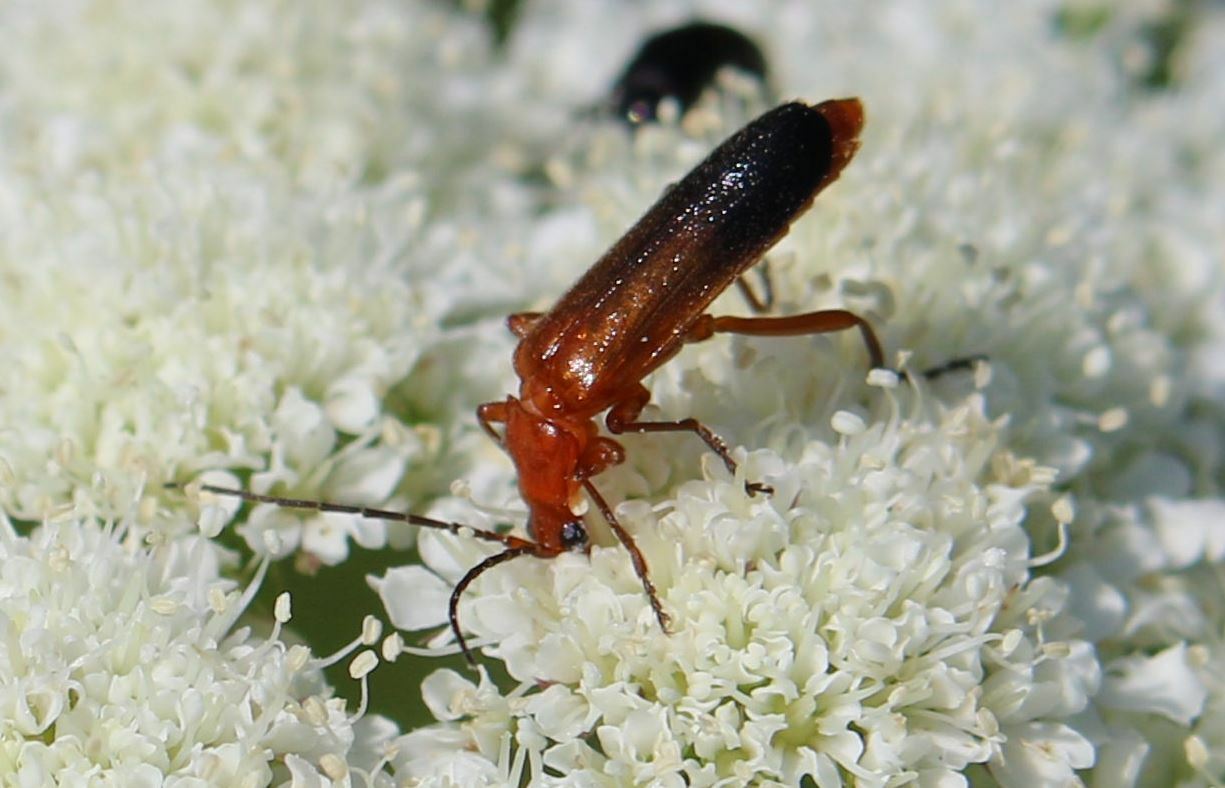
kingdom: Animalia
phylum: Arthropoda
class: Insecta
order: Coleoptera
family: Cantharidae
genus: Rhagonycha
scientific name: Rhagonycha fulva
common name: Common red soldier beetle
